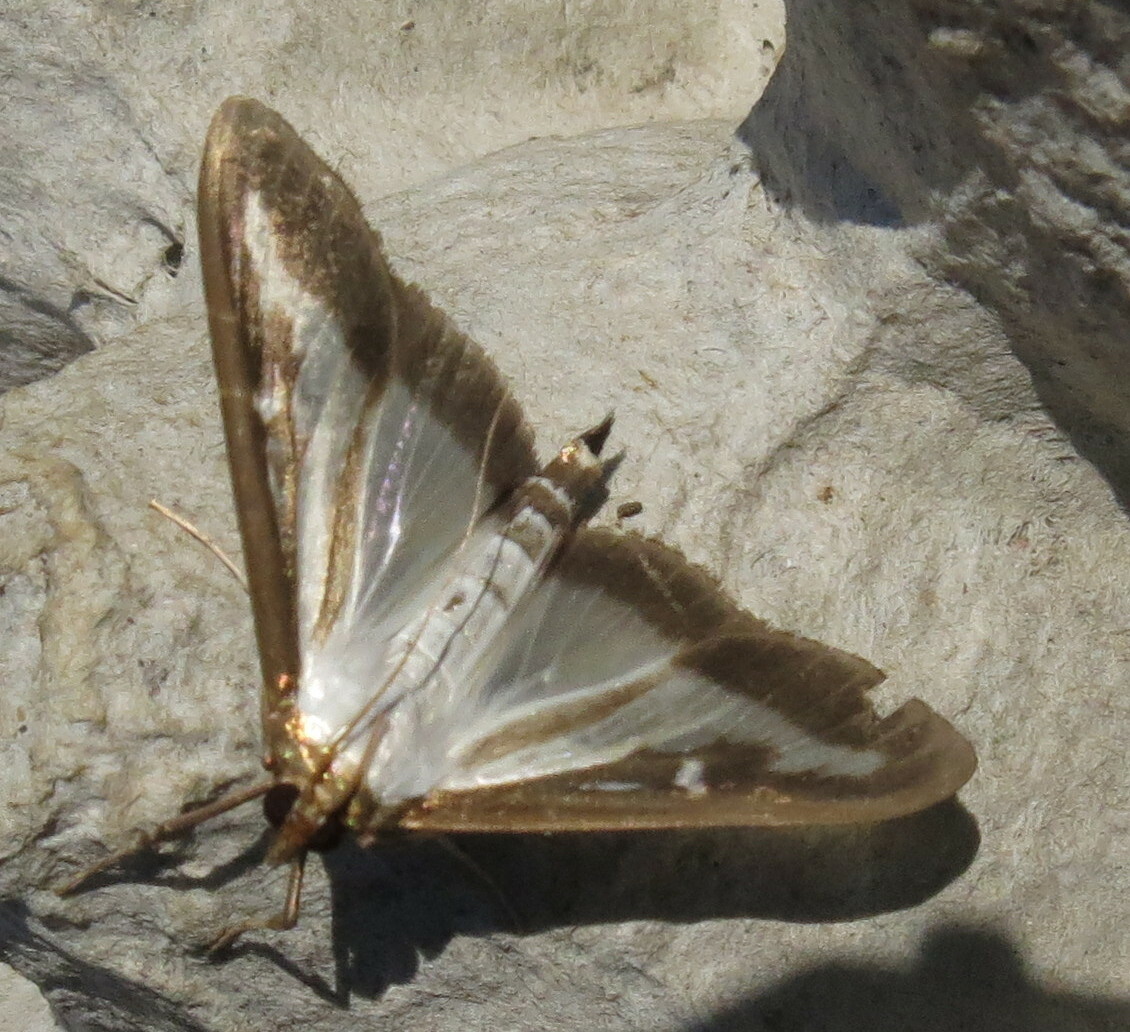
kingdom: Animalia
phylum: Arthropoda
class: Insecta
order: Lepidoptera
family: Crambidae
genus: Cydalima
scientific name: Cydalima perspectalis
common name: Box tree moth
